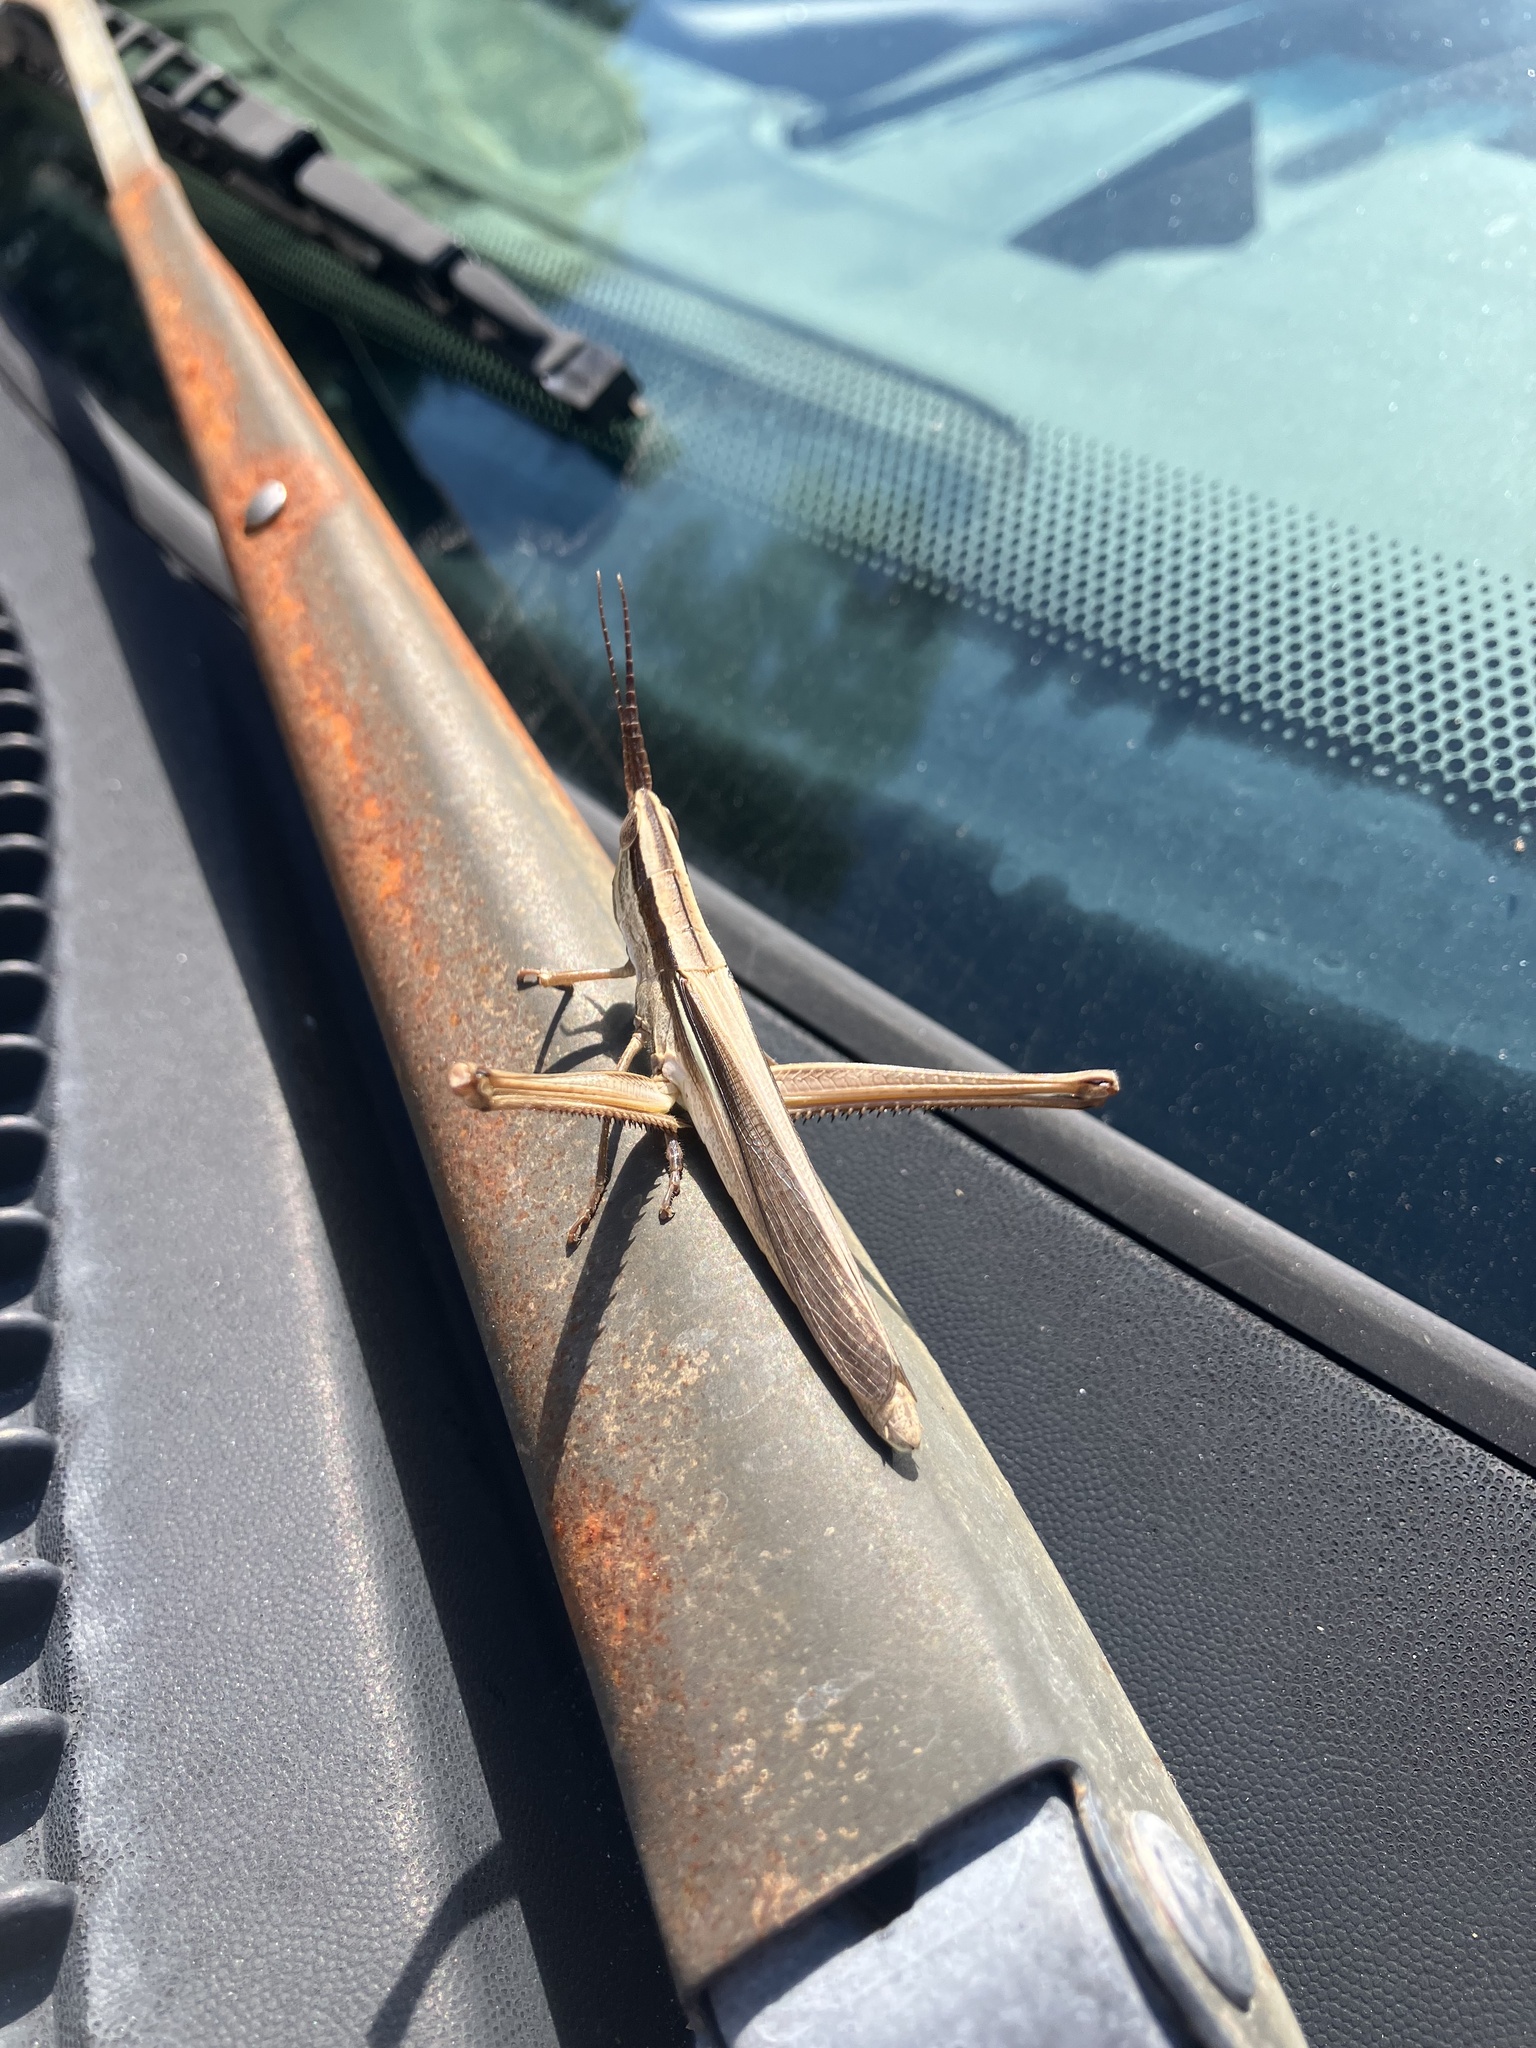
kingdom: Animalia
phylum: Arthropoda
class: Insecta
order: Orthoptera
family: Acrididae
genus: Mermiria
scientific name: Mermiria intertexta
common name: Eastern mermiria grasshopper
